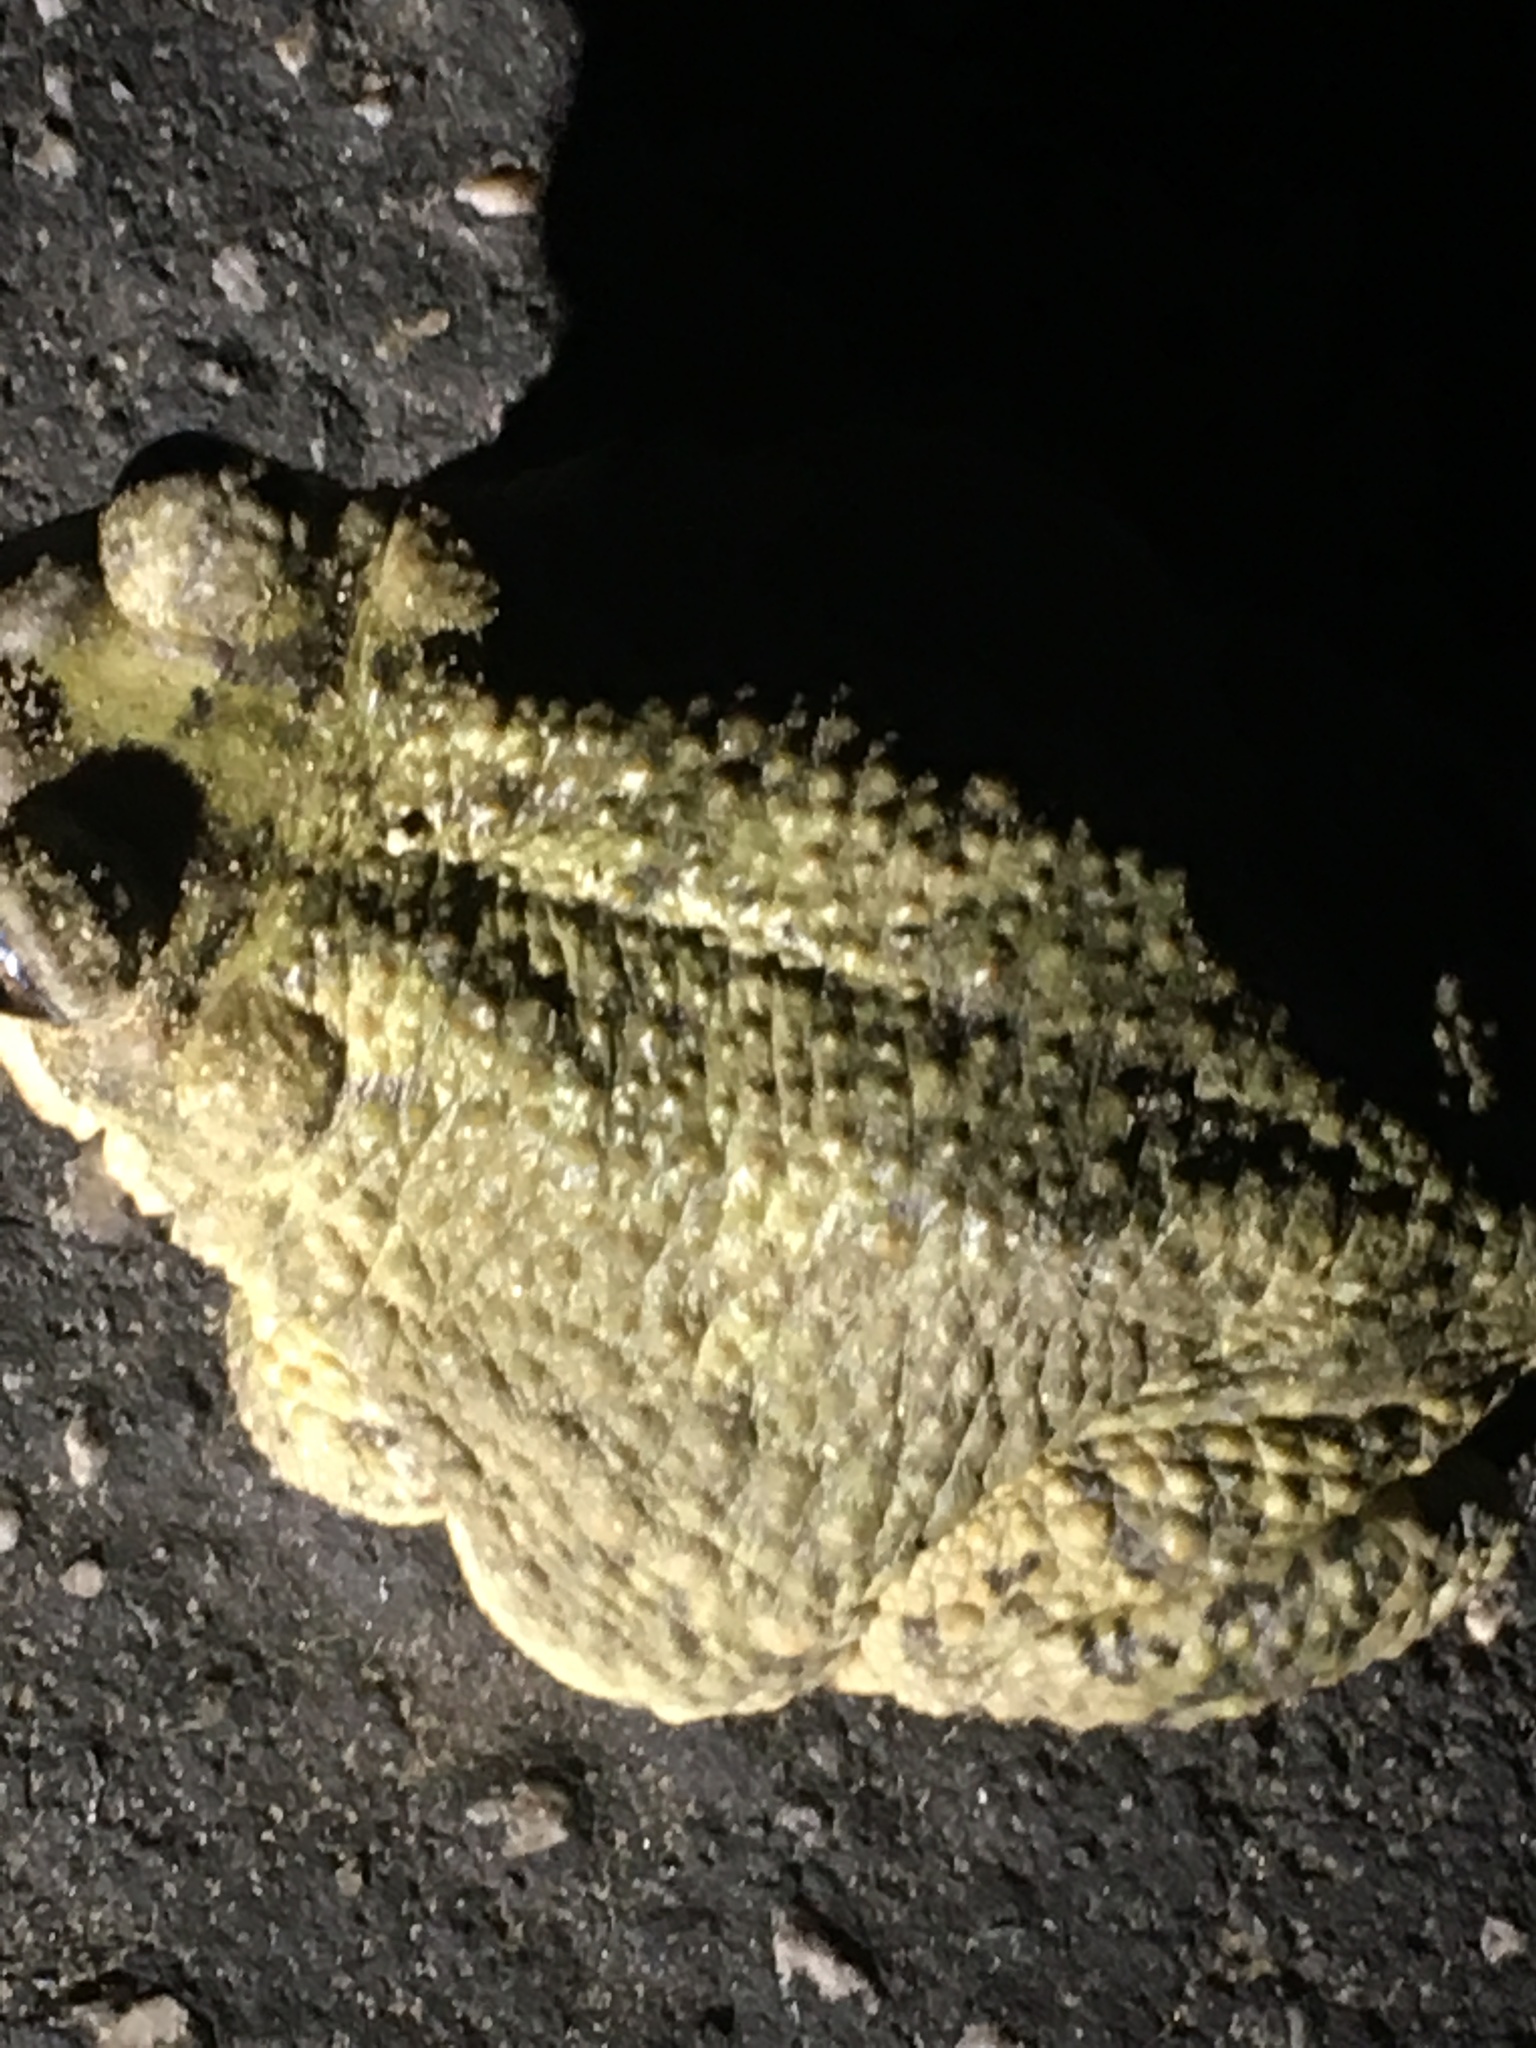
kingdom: Animalia
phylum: Chordata
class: Amphibia
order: Anura
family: Bufonidae
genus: Anaxyrus
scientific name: Anaxyrus punctatus
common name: Red-spotted toad
